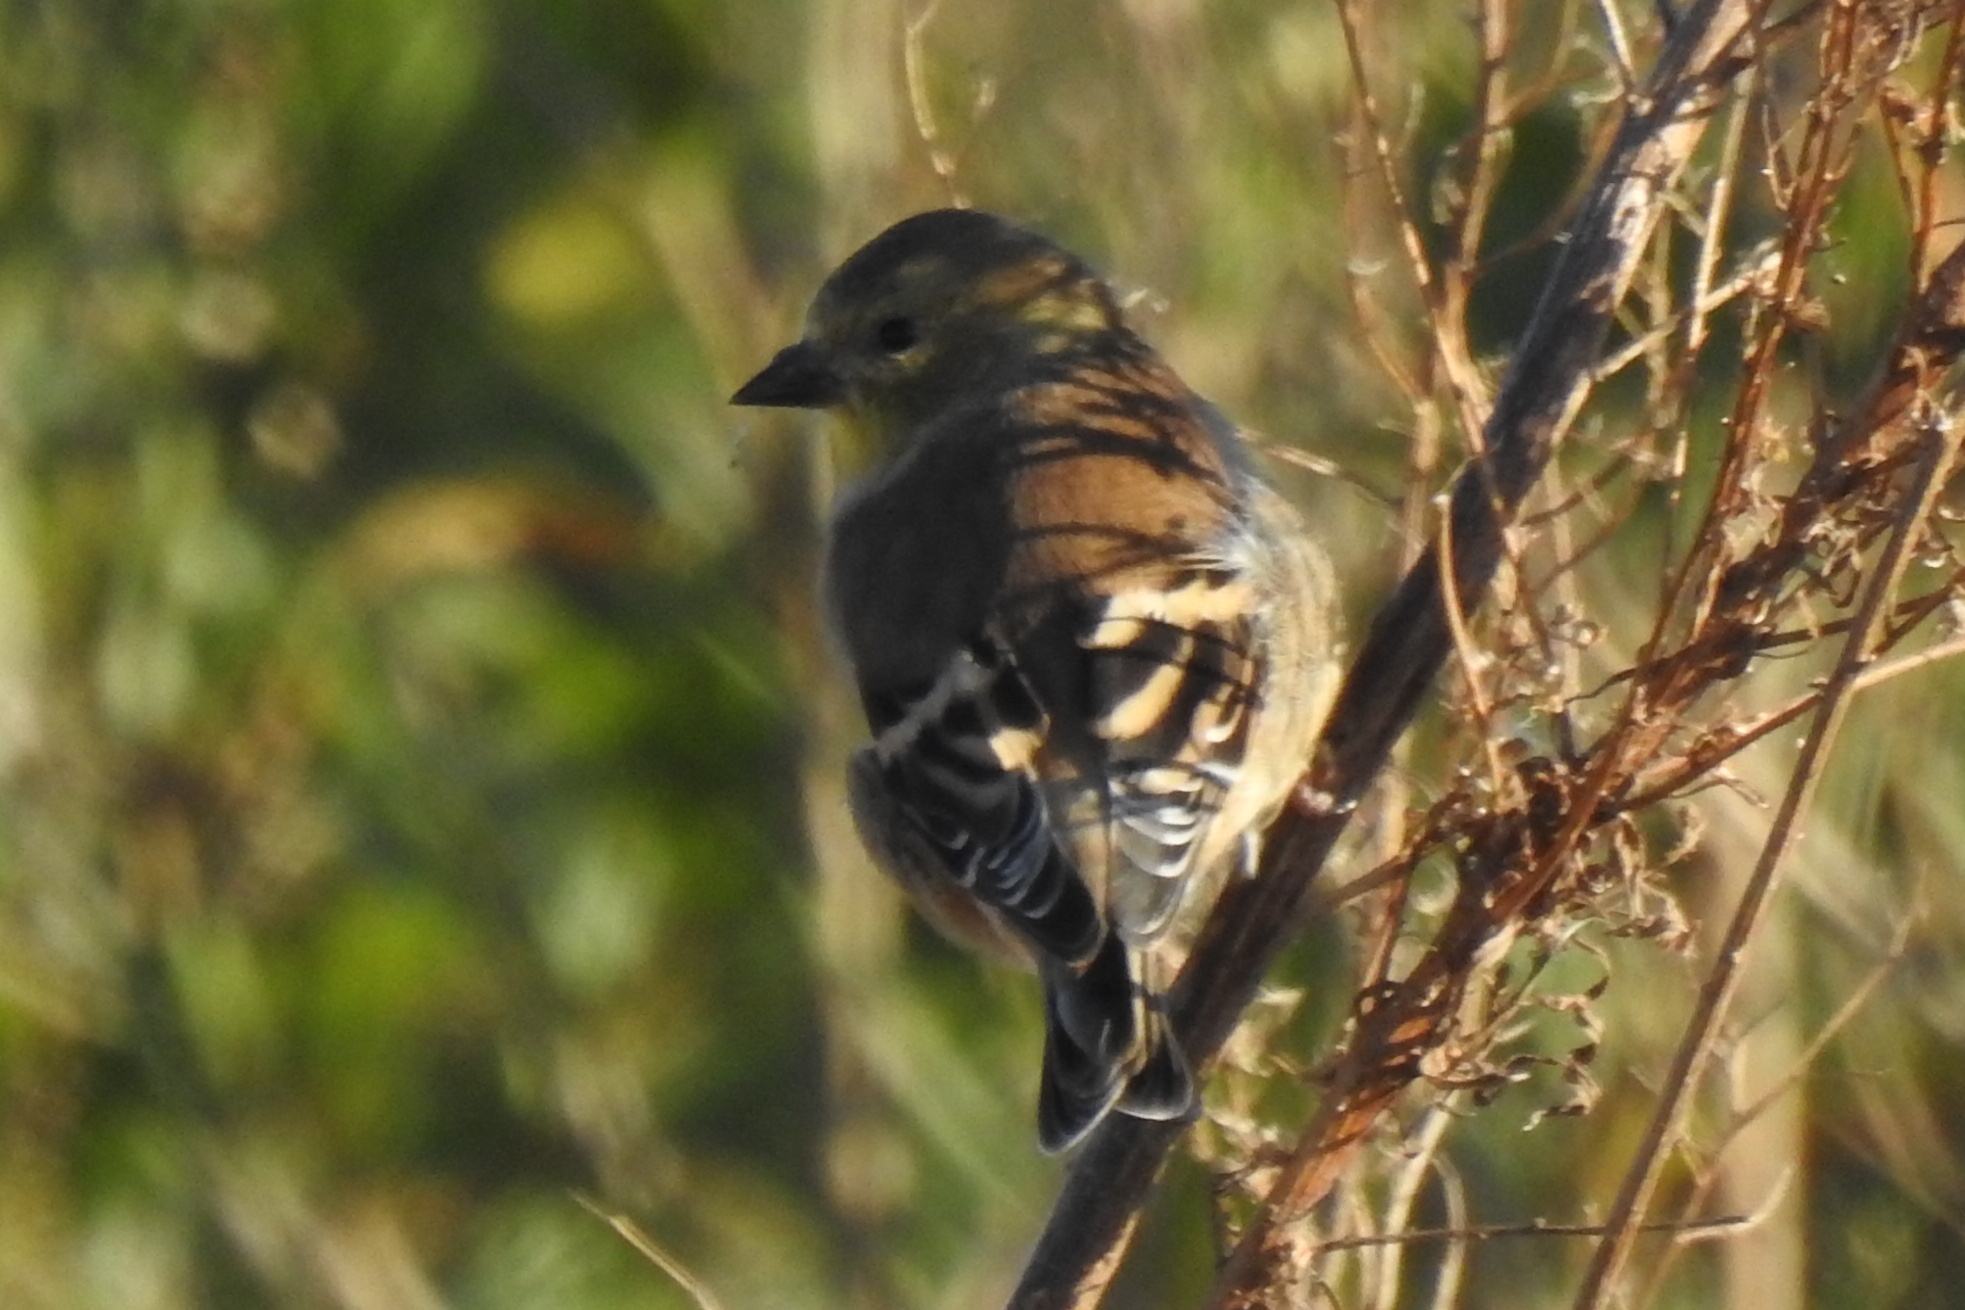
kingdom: Animalia
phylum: Chordata
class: Aves
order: Passeriformes
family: Fringillidae
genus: Spinus
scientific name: Spinus tristis
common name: American goldfinch
